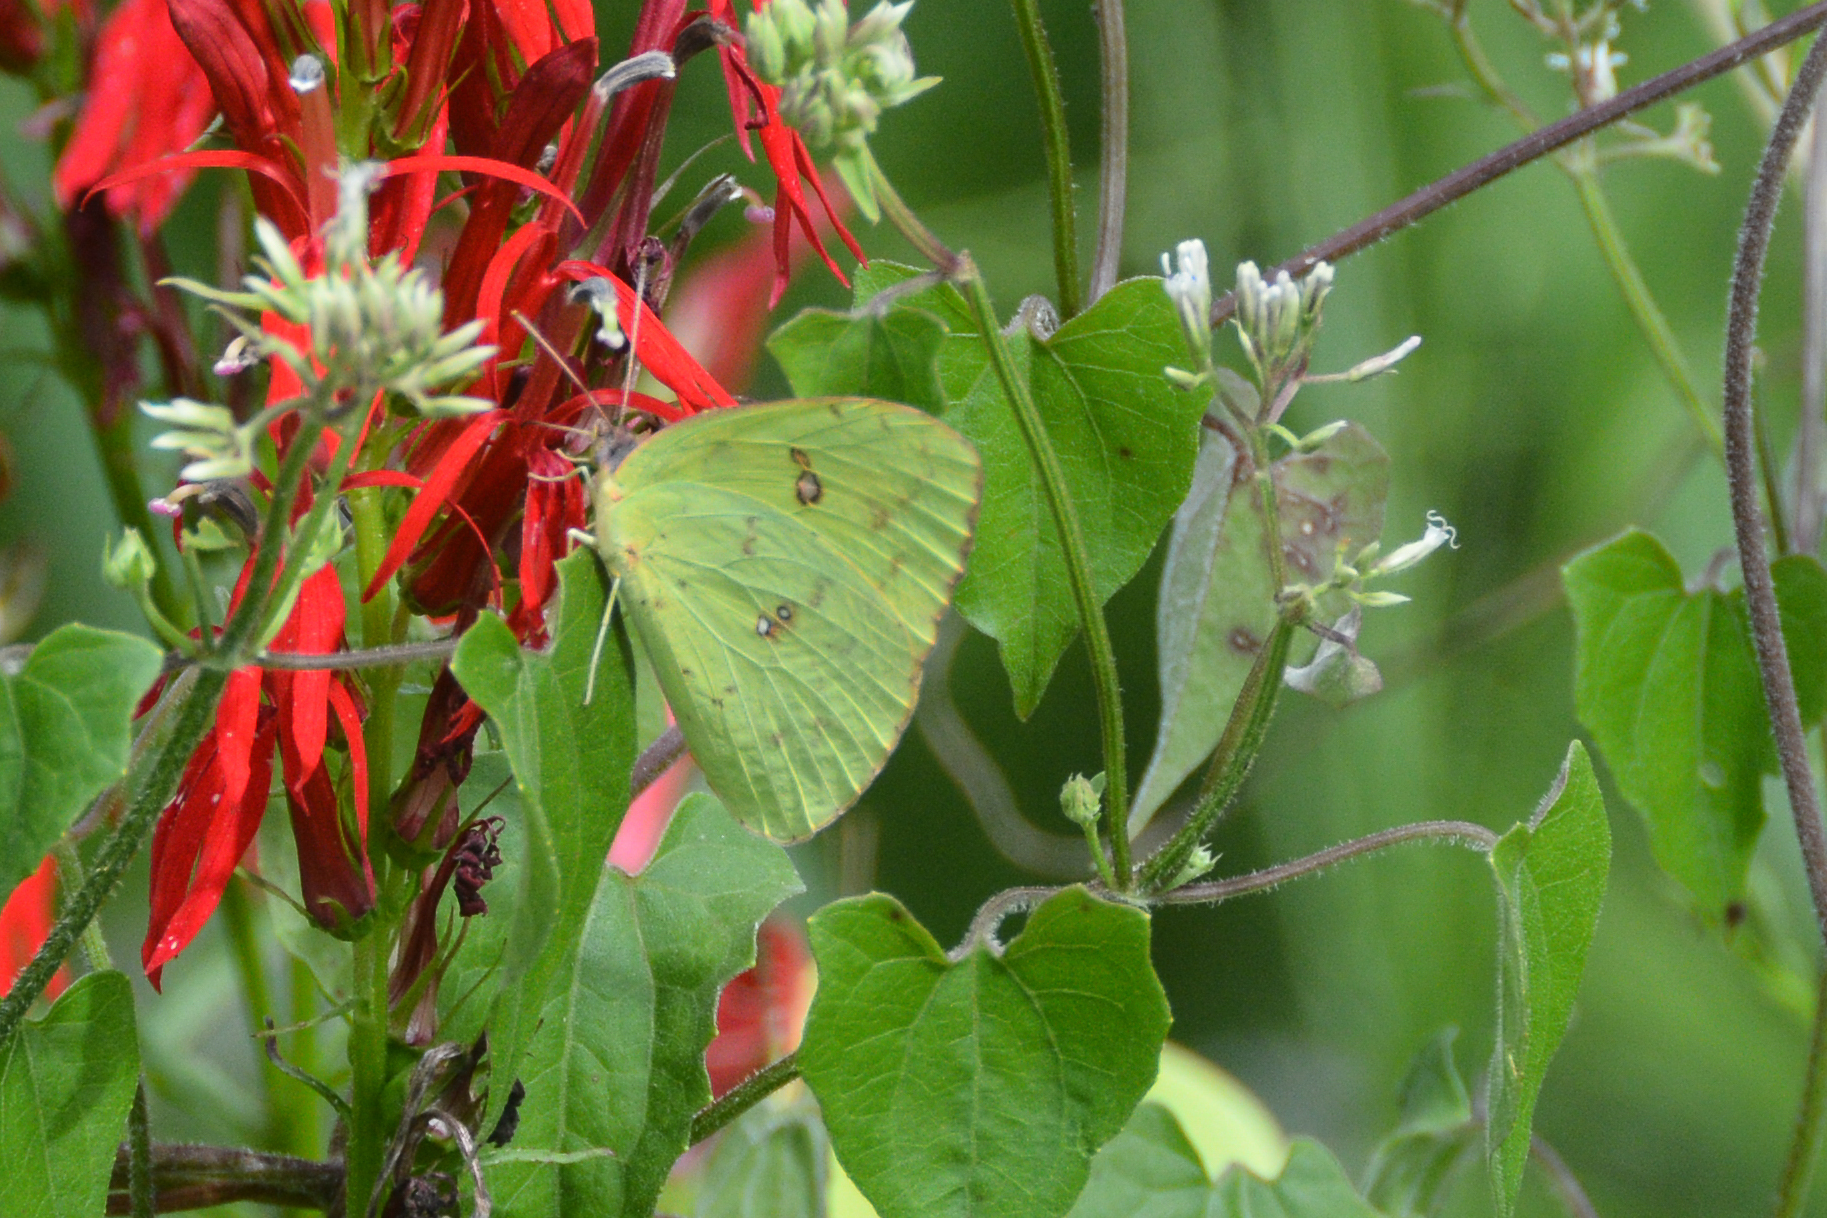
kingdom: Animalia
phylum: Arthropoda
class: Insecta
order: Lepidoptera
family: Pieridae
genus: Phoebis
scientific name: Phoebis sennae
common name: Cloudless sulphur
